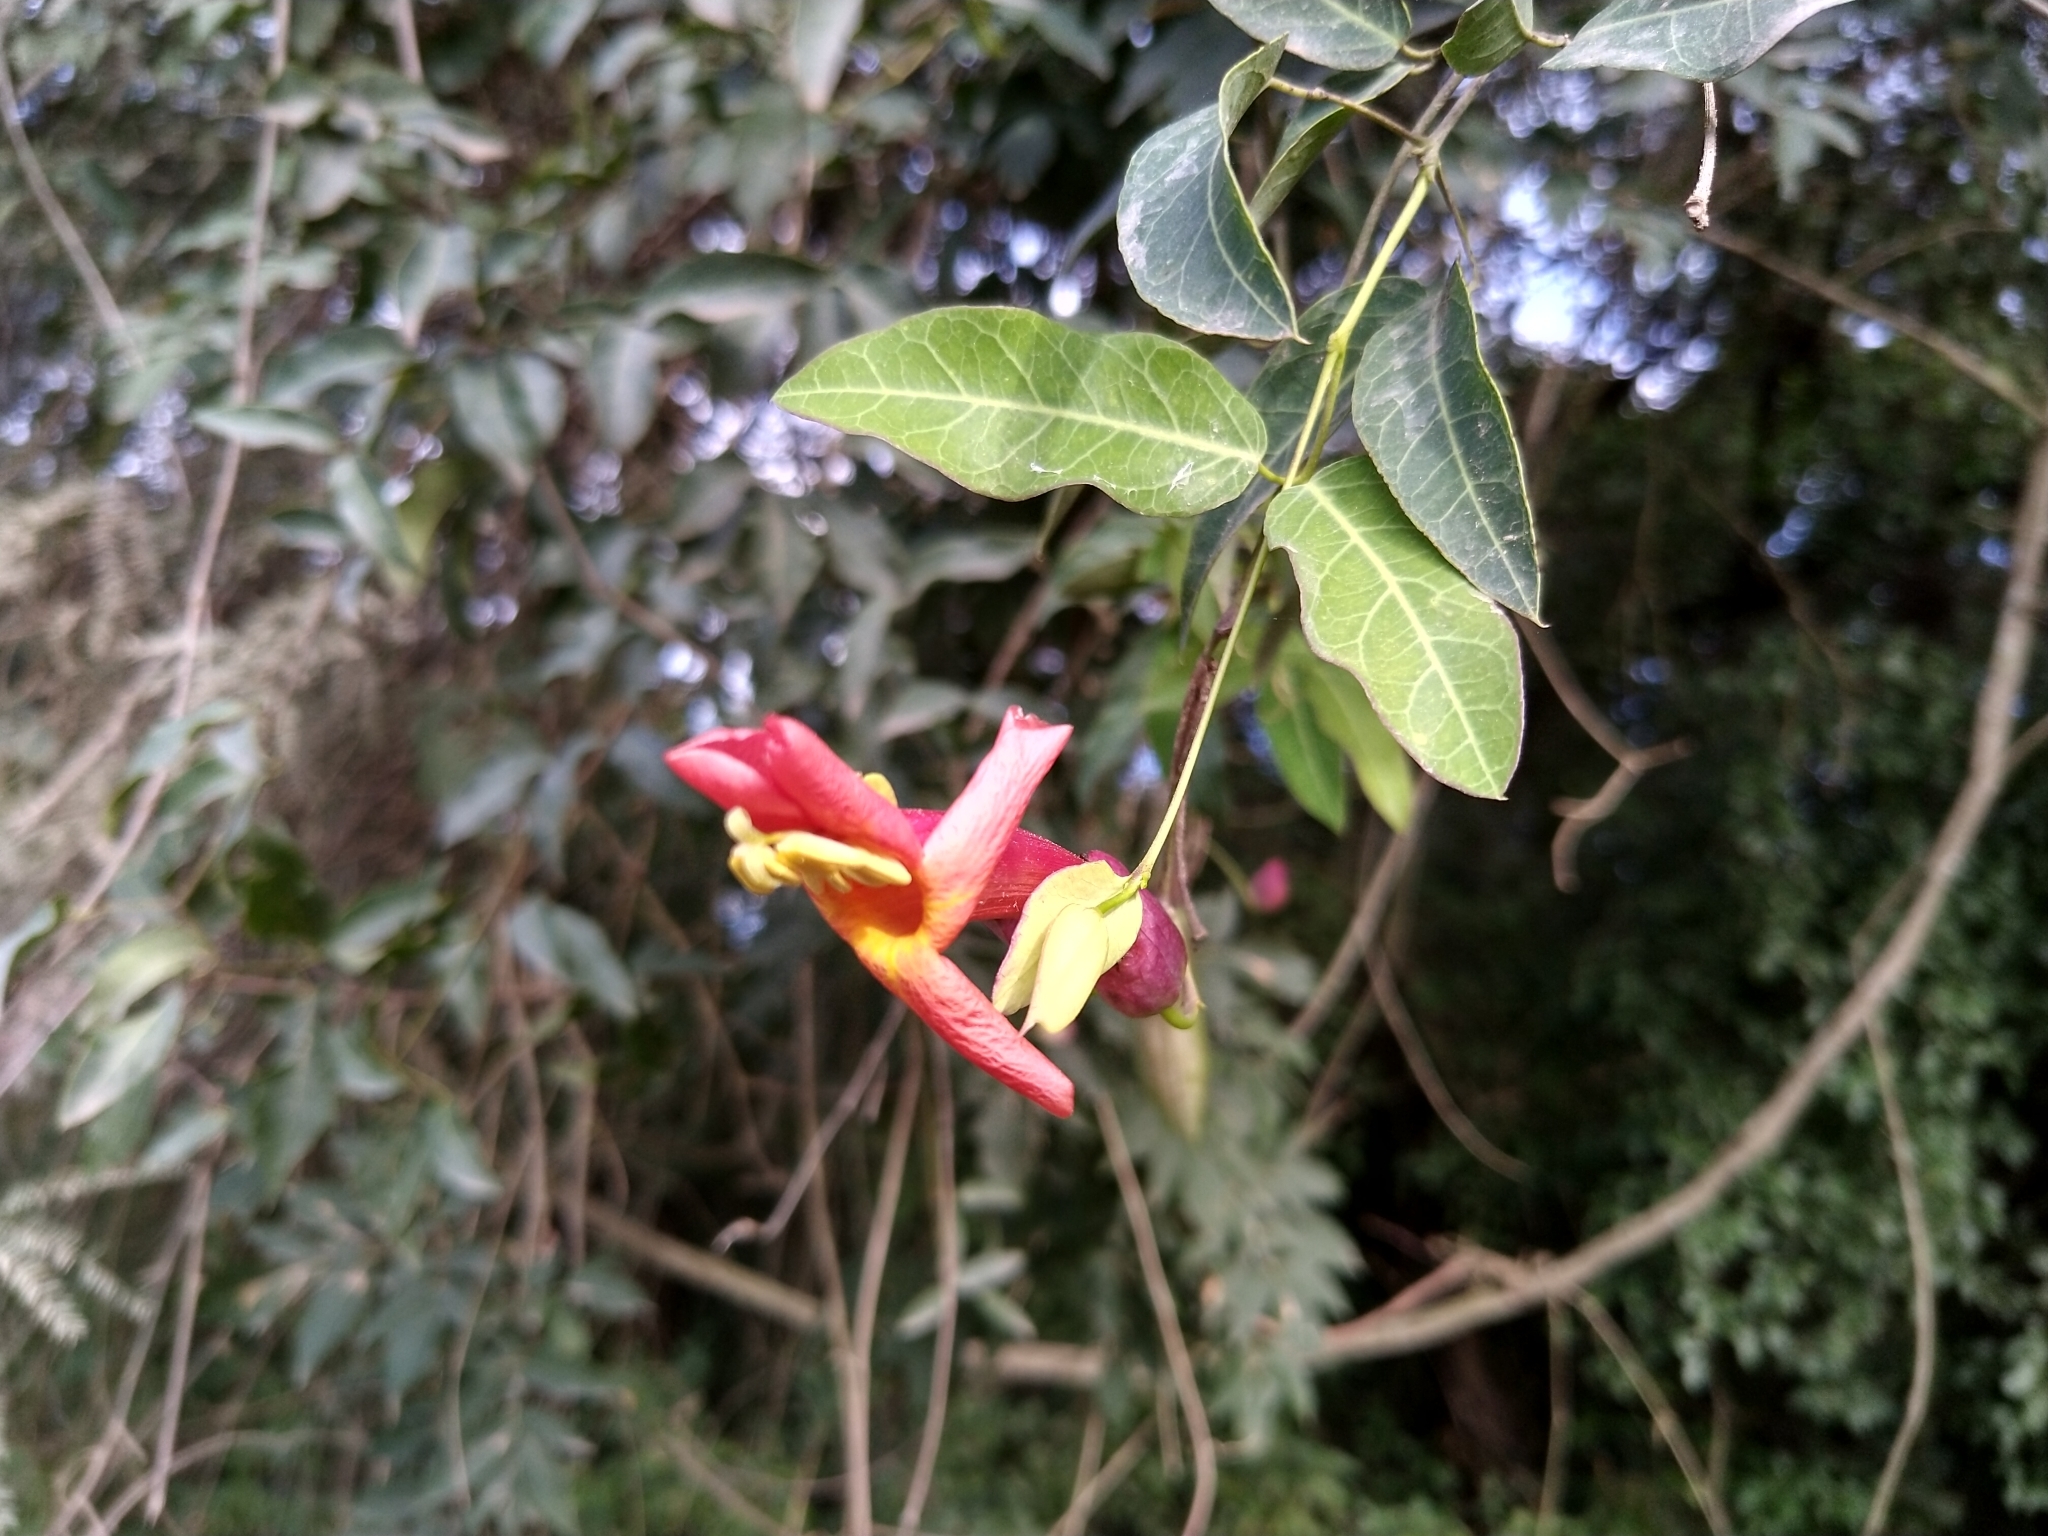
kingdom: Plantae
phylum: Tracheophyta
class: Magnoliopsida
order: Lamiales
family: Bignoniaceae
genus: Dolichandra
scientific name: Dolichandra cynanchoides
